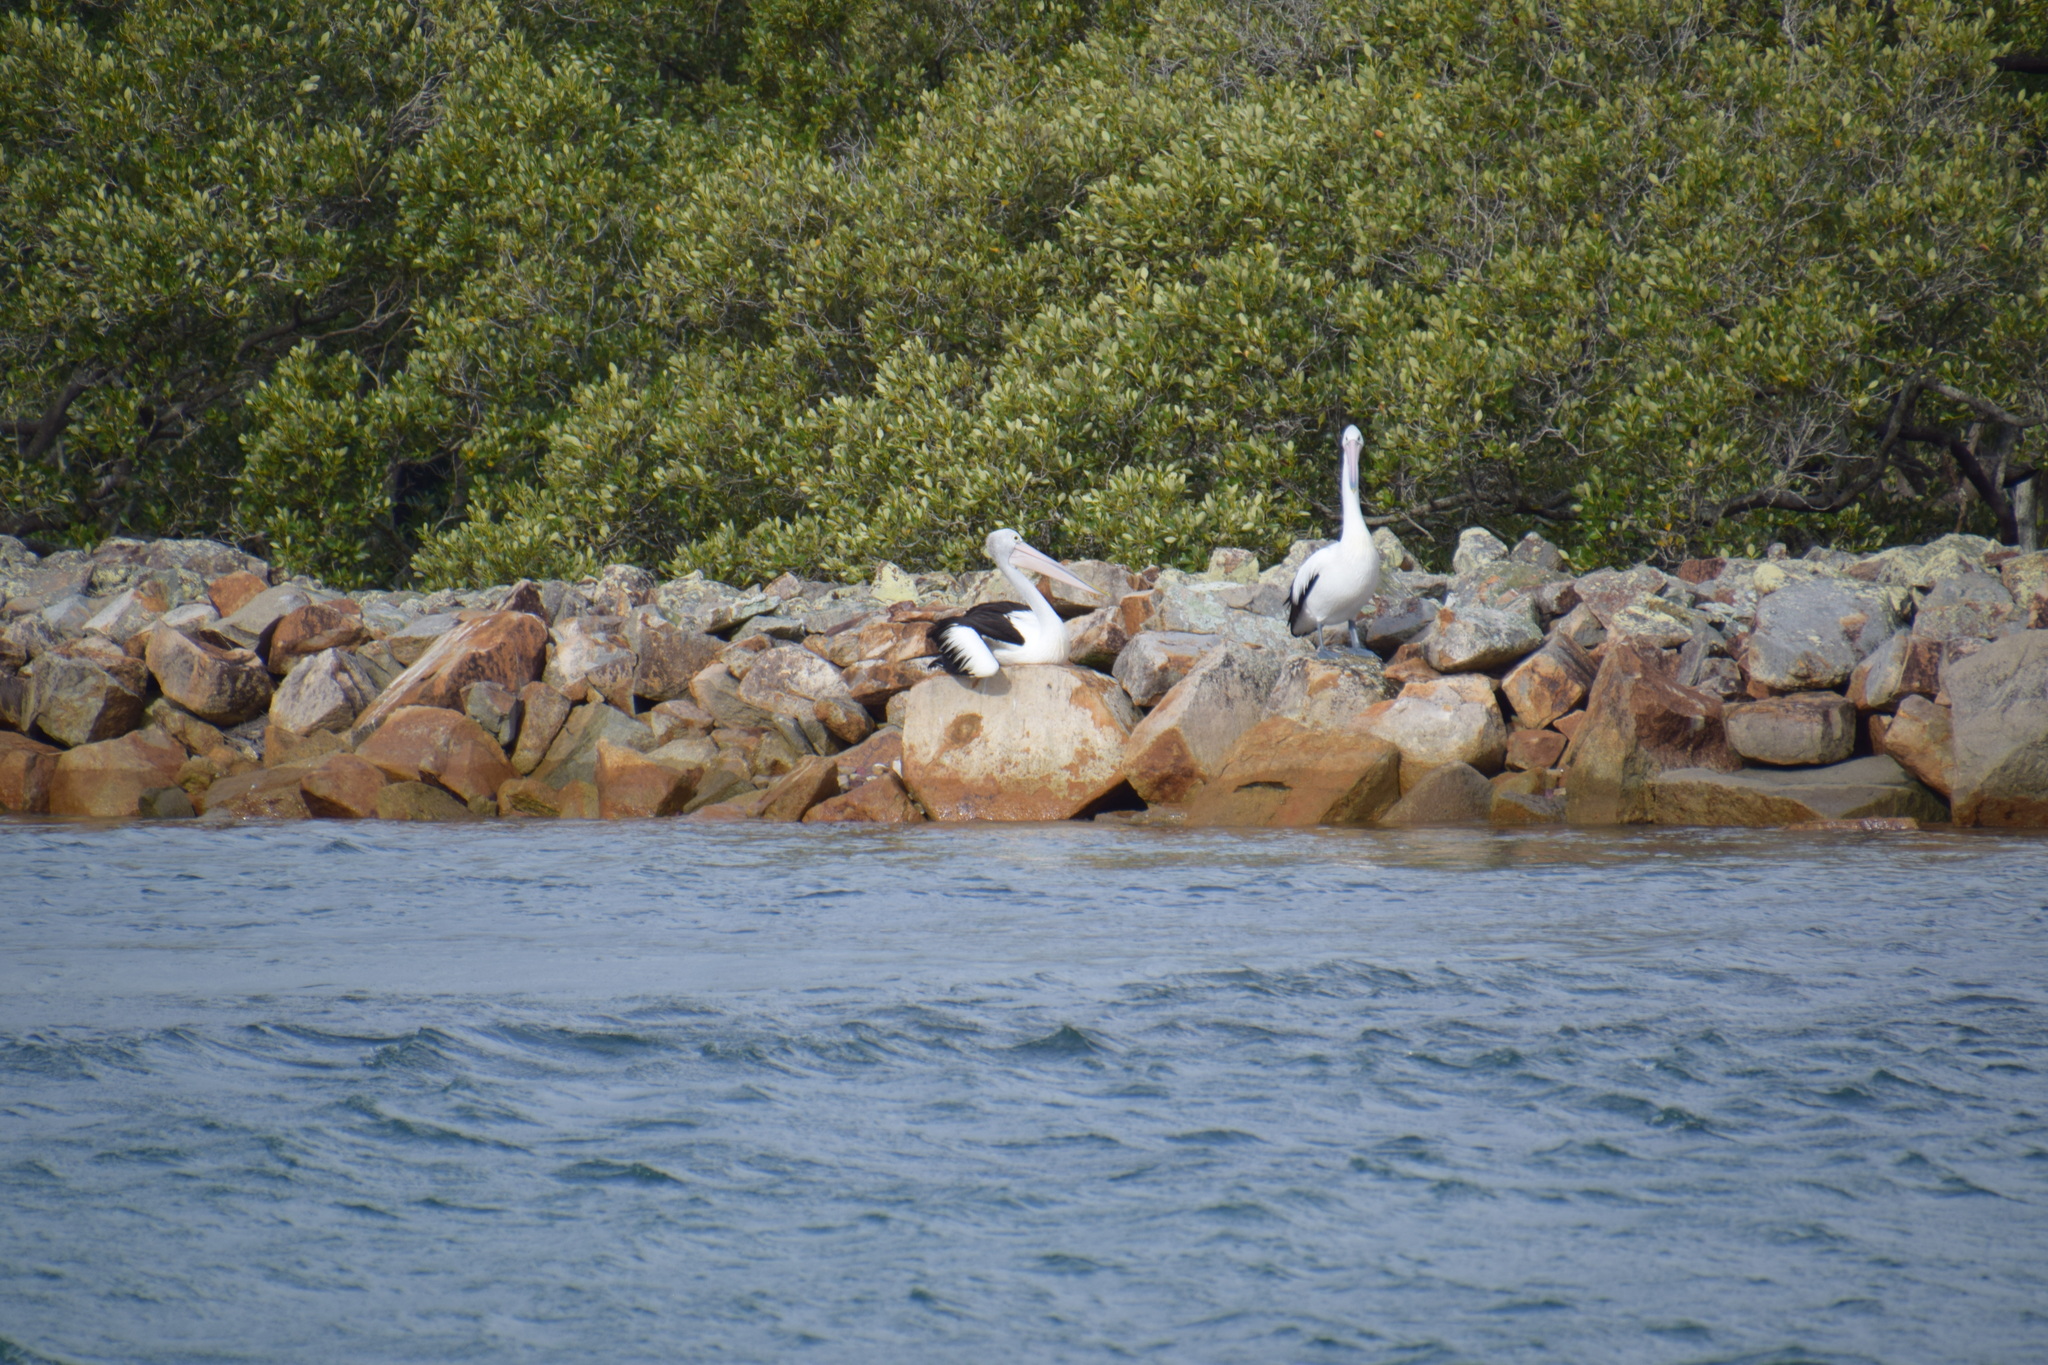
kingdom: Animalia
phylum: Chordata
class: Aves
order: Pelecaniformes
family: Pelecanidae
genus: Pelecanus
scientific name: Pelecanus conspicillatus
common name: Australian pelican
